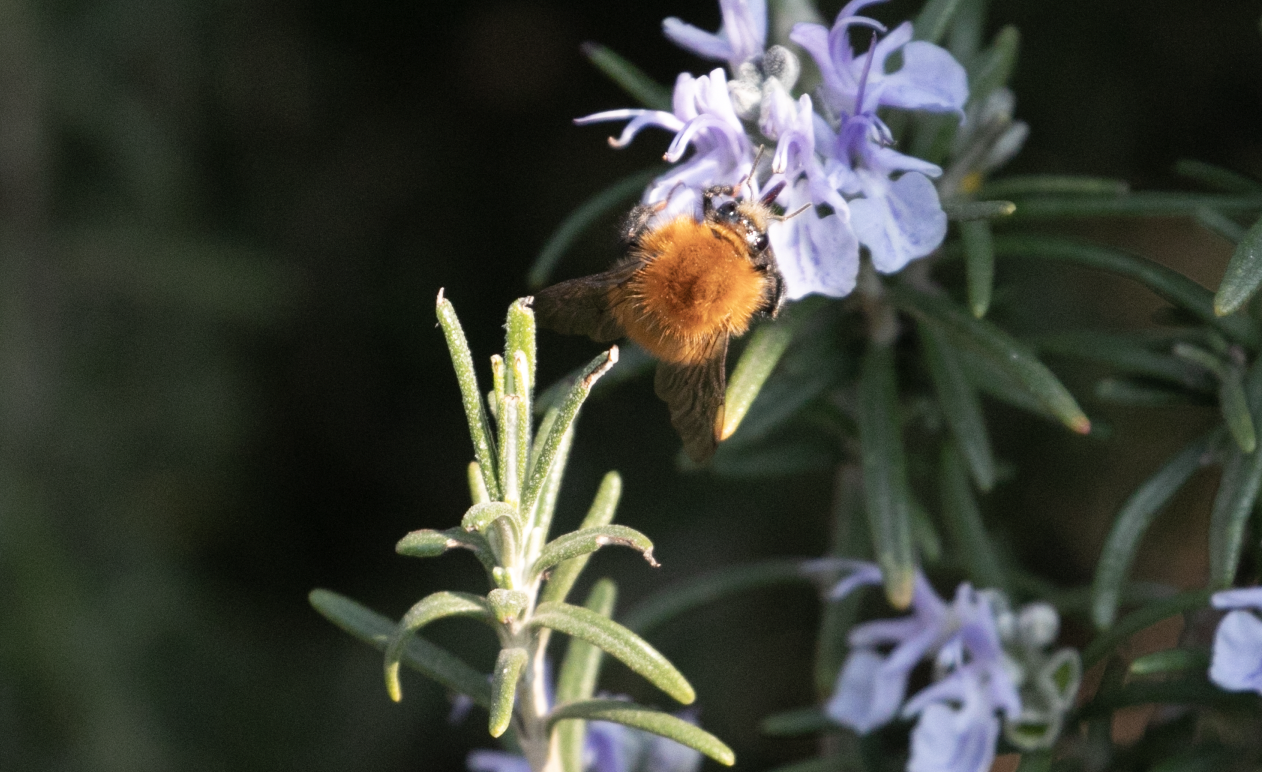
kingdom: Animalia
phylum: Arthropoda
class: Insecta
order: Hymenoptera
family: Apidae
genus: Bombus
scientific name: Bombus pascuorum
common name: Common carder bee
